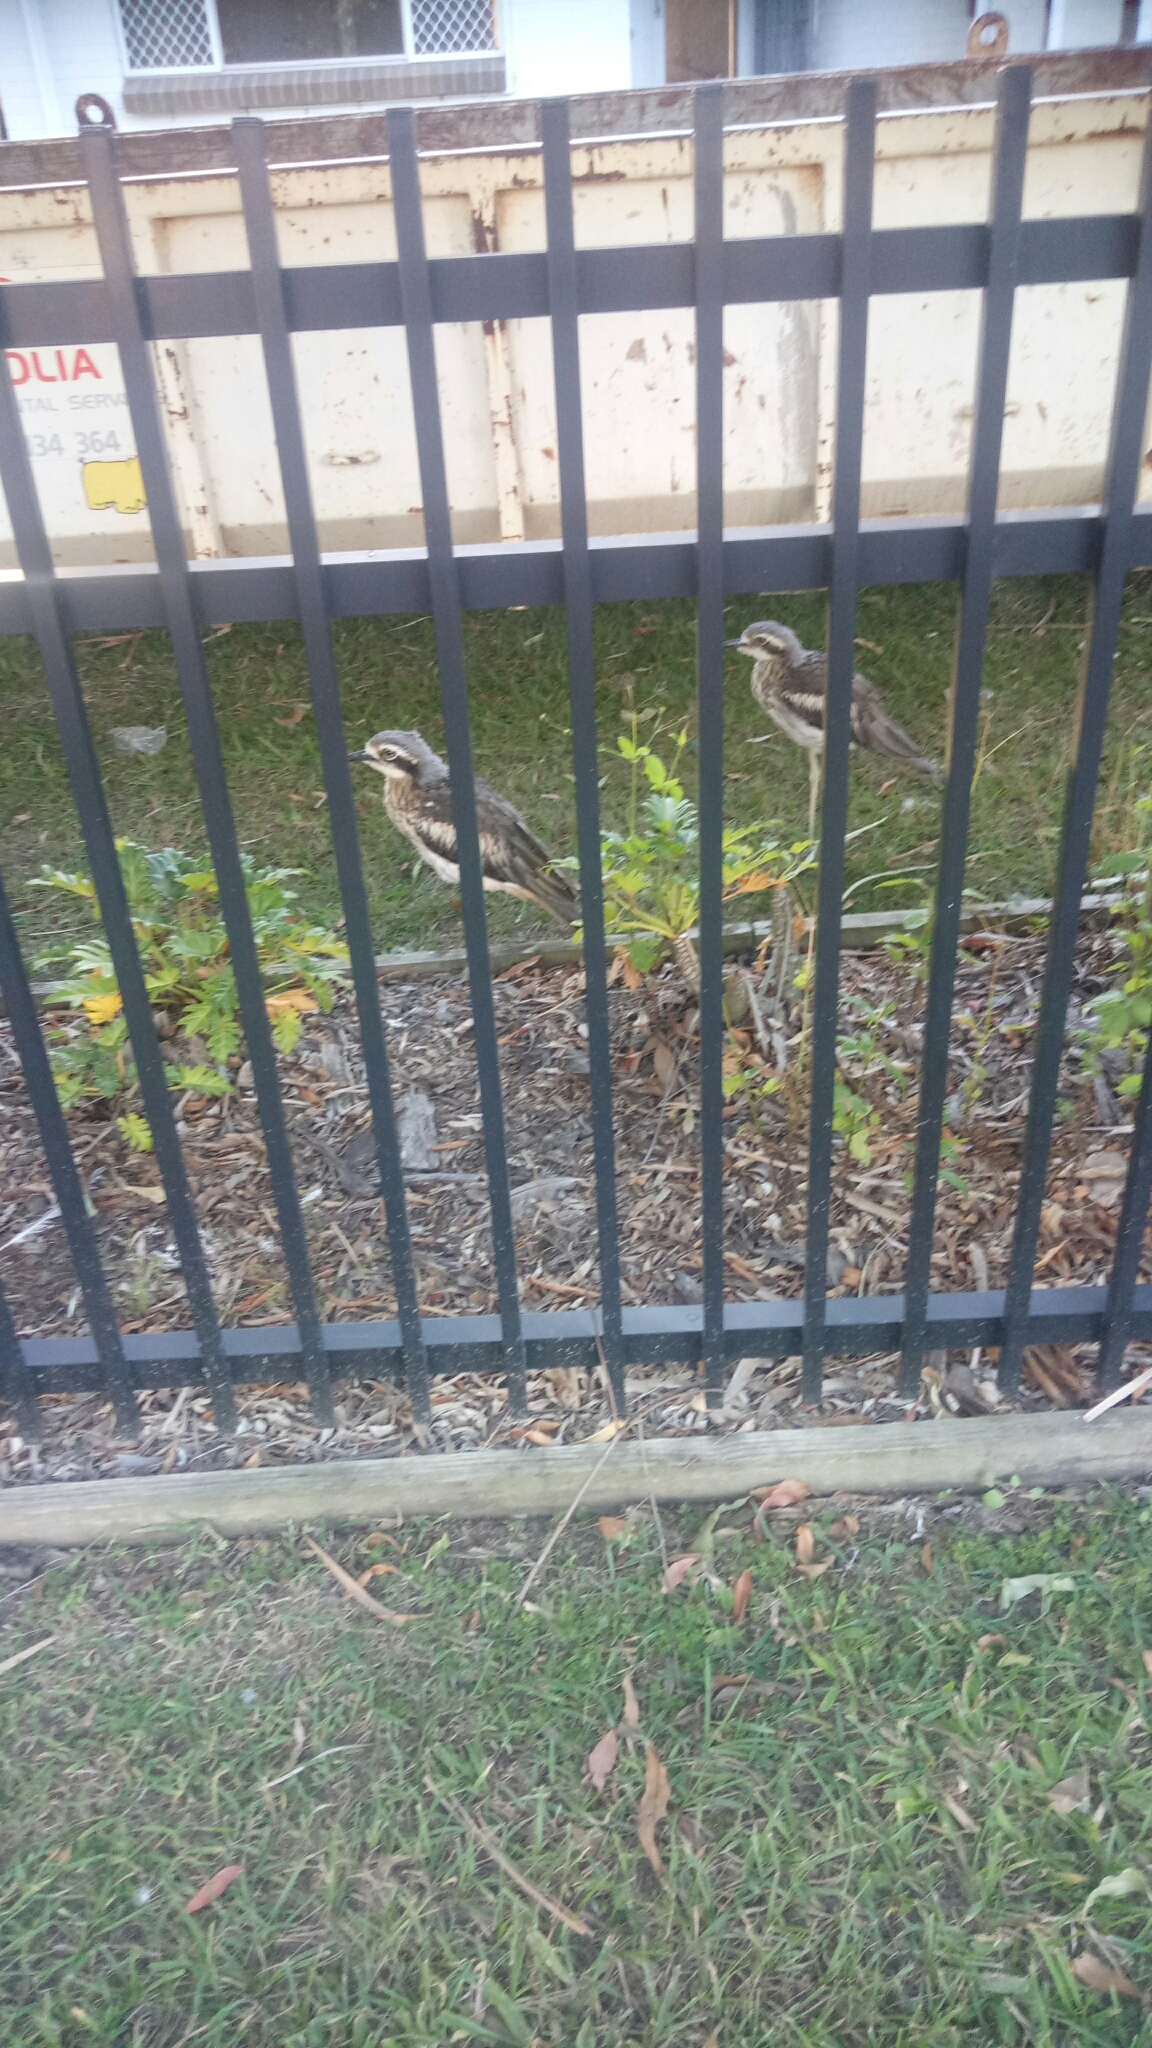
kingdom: Animalia
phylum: Chordata
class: Aves
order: Charadriiformes
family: Burhinidae
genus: Burhinus
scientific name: Burhinus grallarius
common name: Bush stone-curlew
